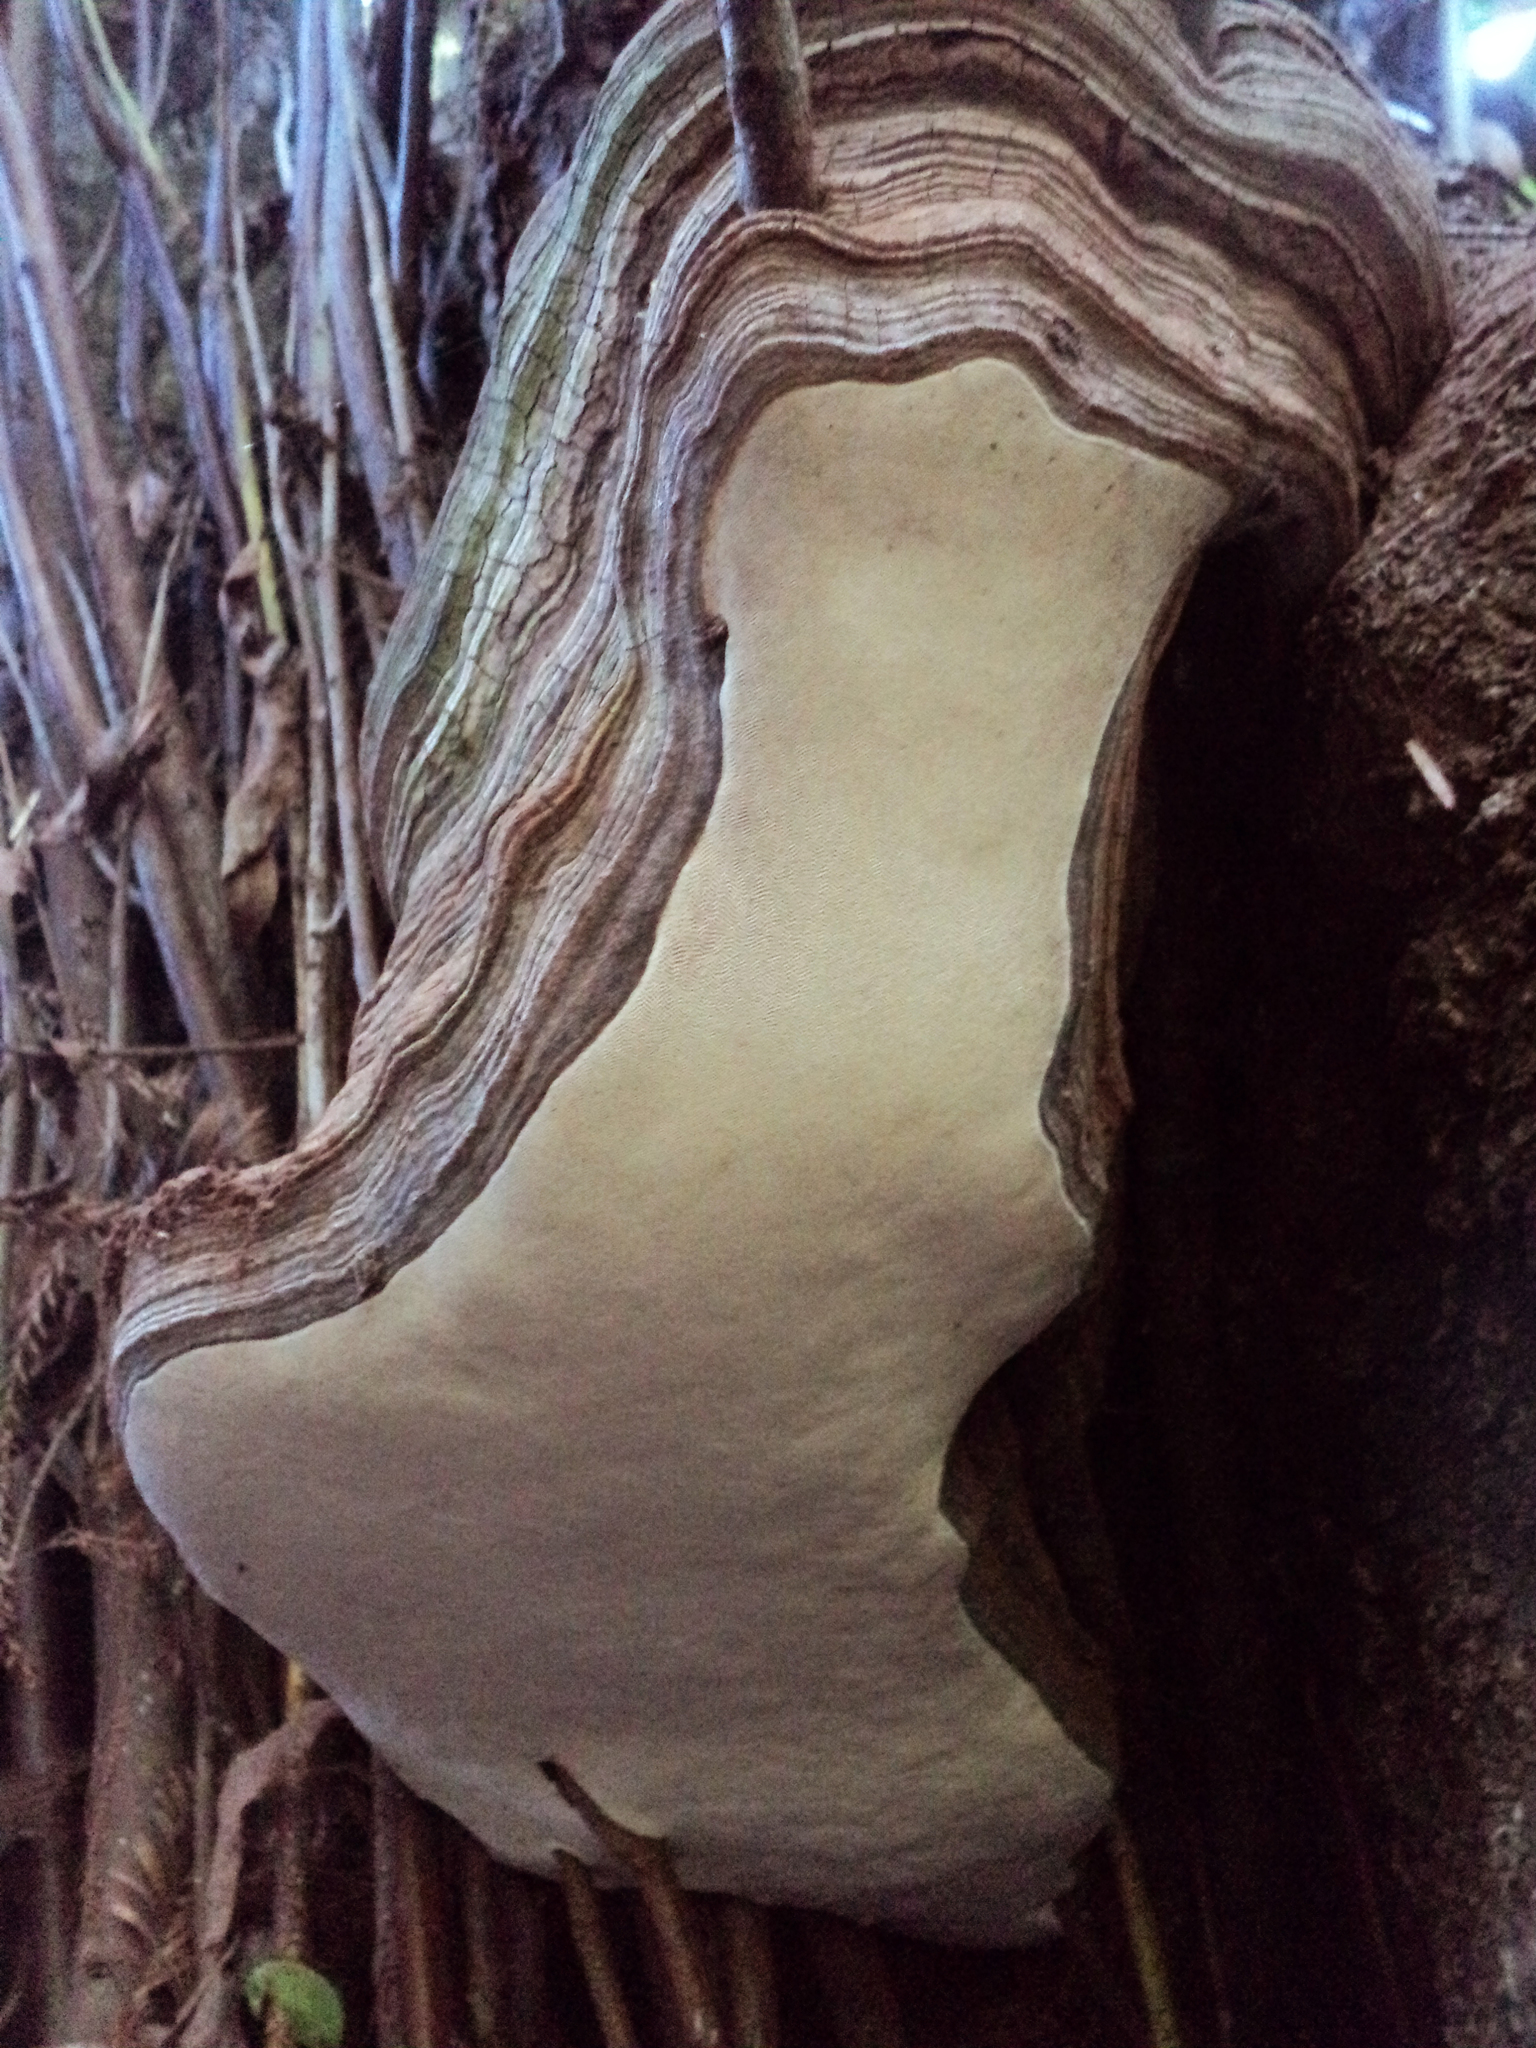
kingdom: Fungi
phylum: Basidiomycota
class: Agaricomycetes
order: Polyporales
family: Polyporaceae
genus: Ganoderma
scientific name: Ganoderma brownii
